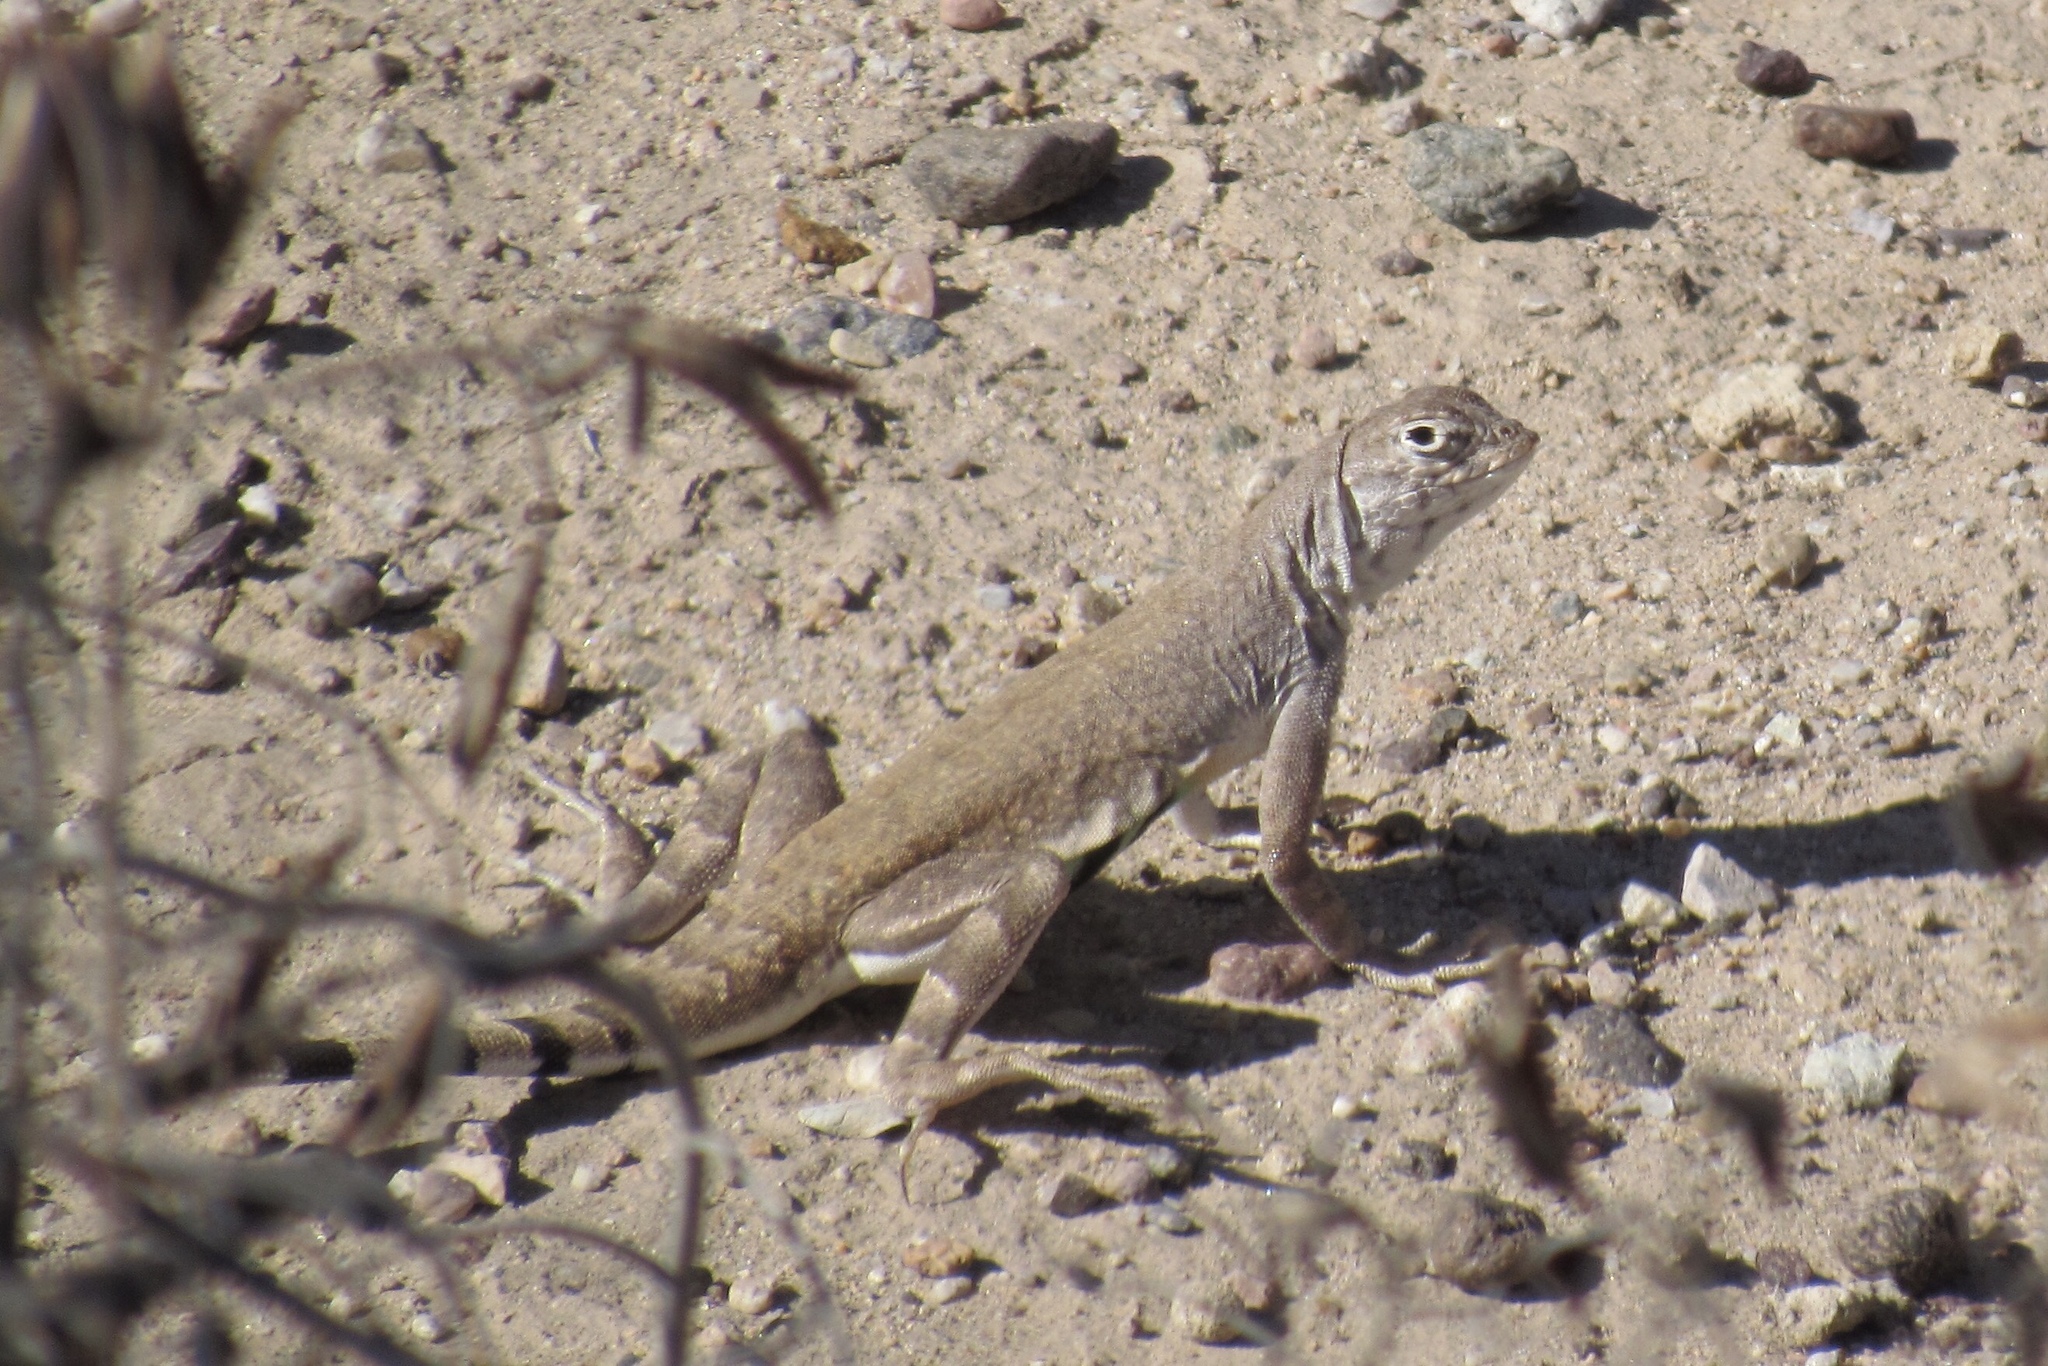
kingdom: Animalia
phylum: Chordata
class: Squamata
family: Phrynosomatidae
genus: Callisaurus
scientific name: Callisaurus draconoides
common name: Zebra-tailed lizard
